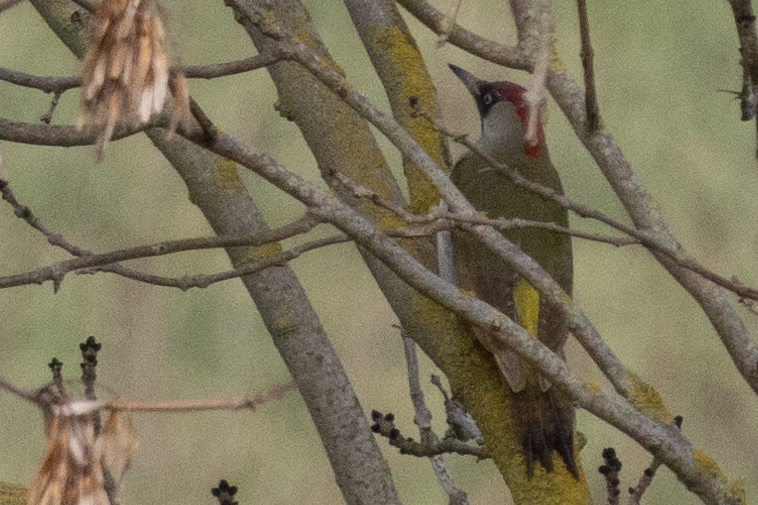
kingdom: Animalia
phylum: Chordata
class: Aves
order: Piciformes
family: Picidae
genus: Picus
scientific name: Picus viridis
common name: European green woodpecker
